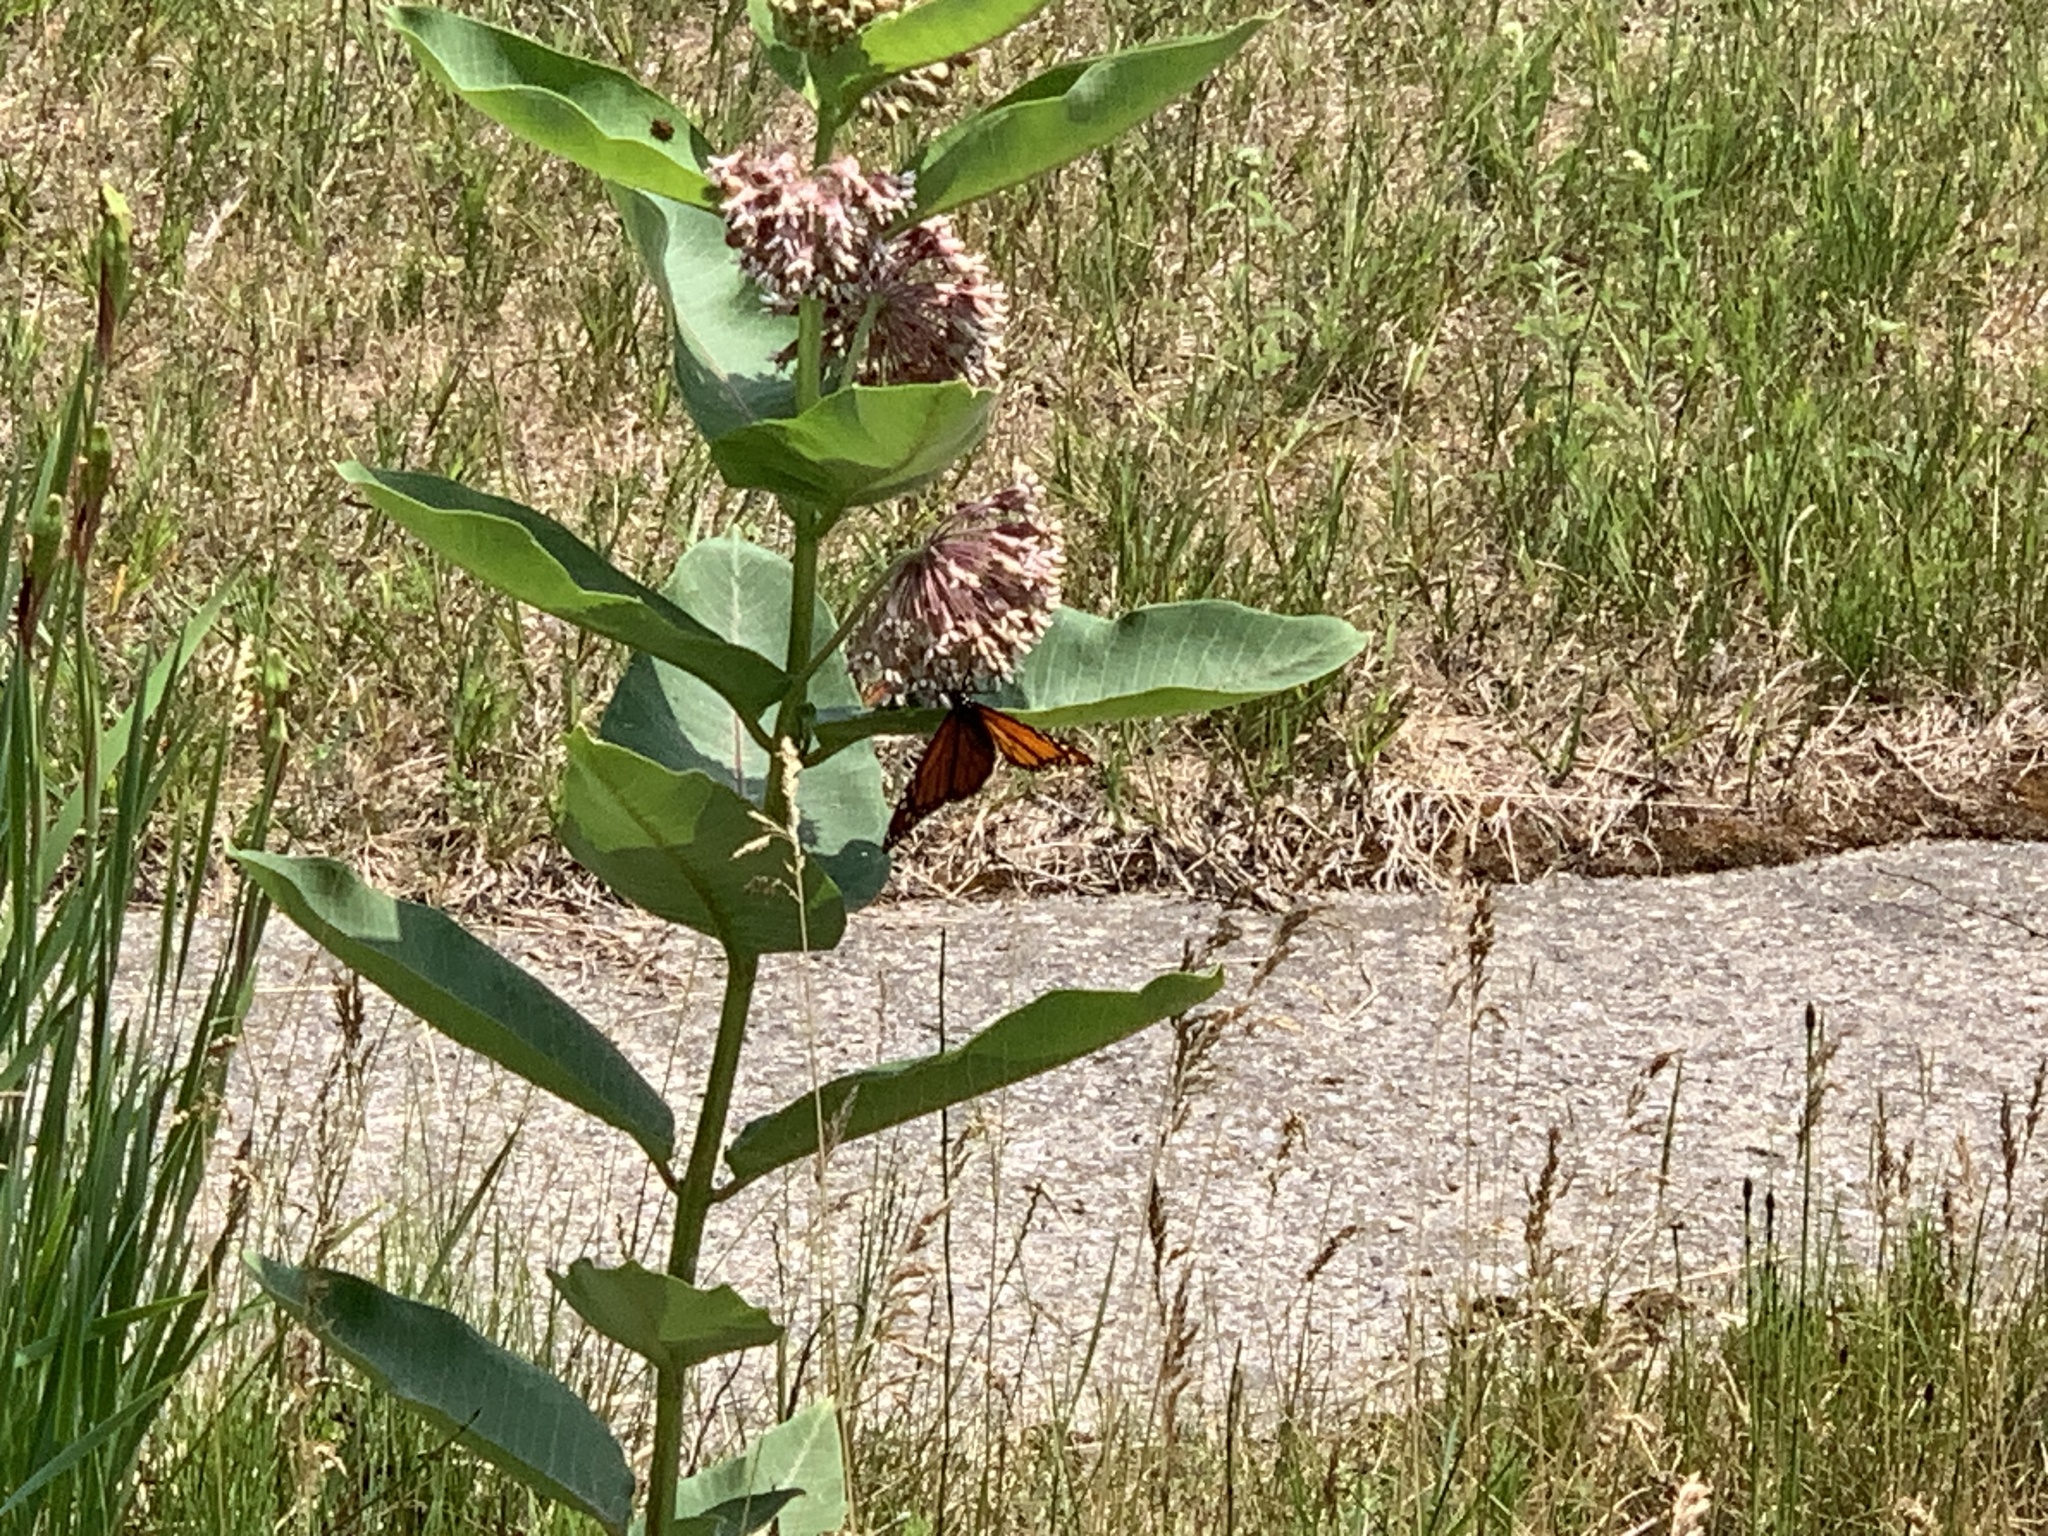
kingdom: Animalia
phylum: Arthropoda
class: Insecta
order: Lepidoptera
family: Nymphalidae
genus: Danaus
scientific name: Danaus plexippus
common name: Monarch
